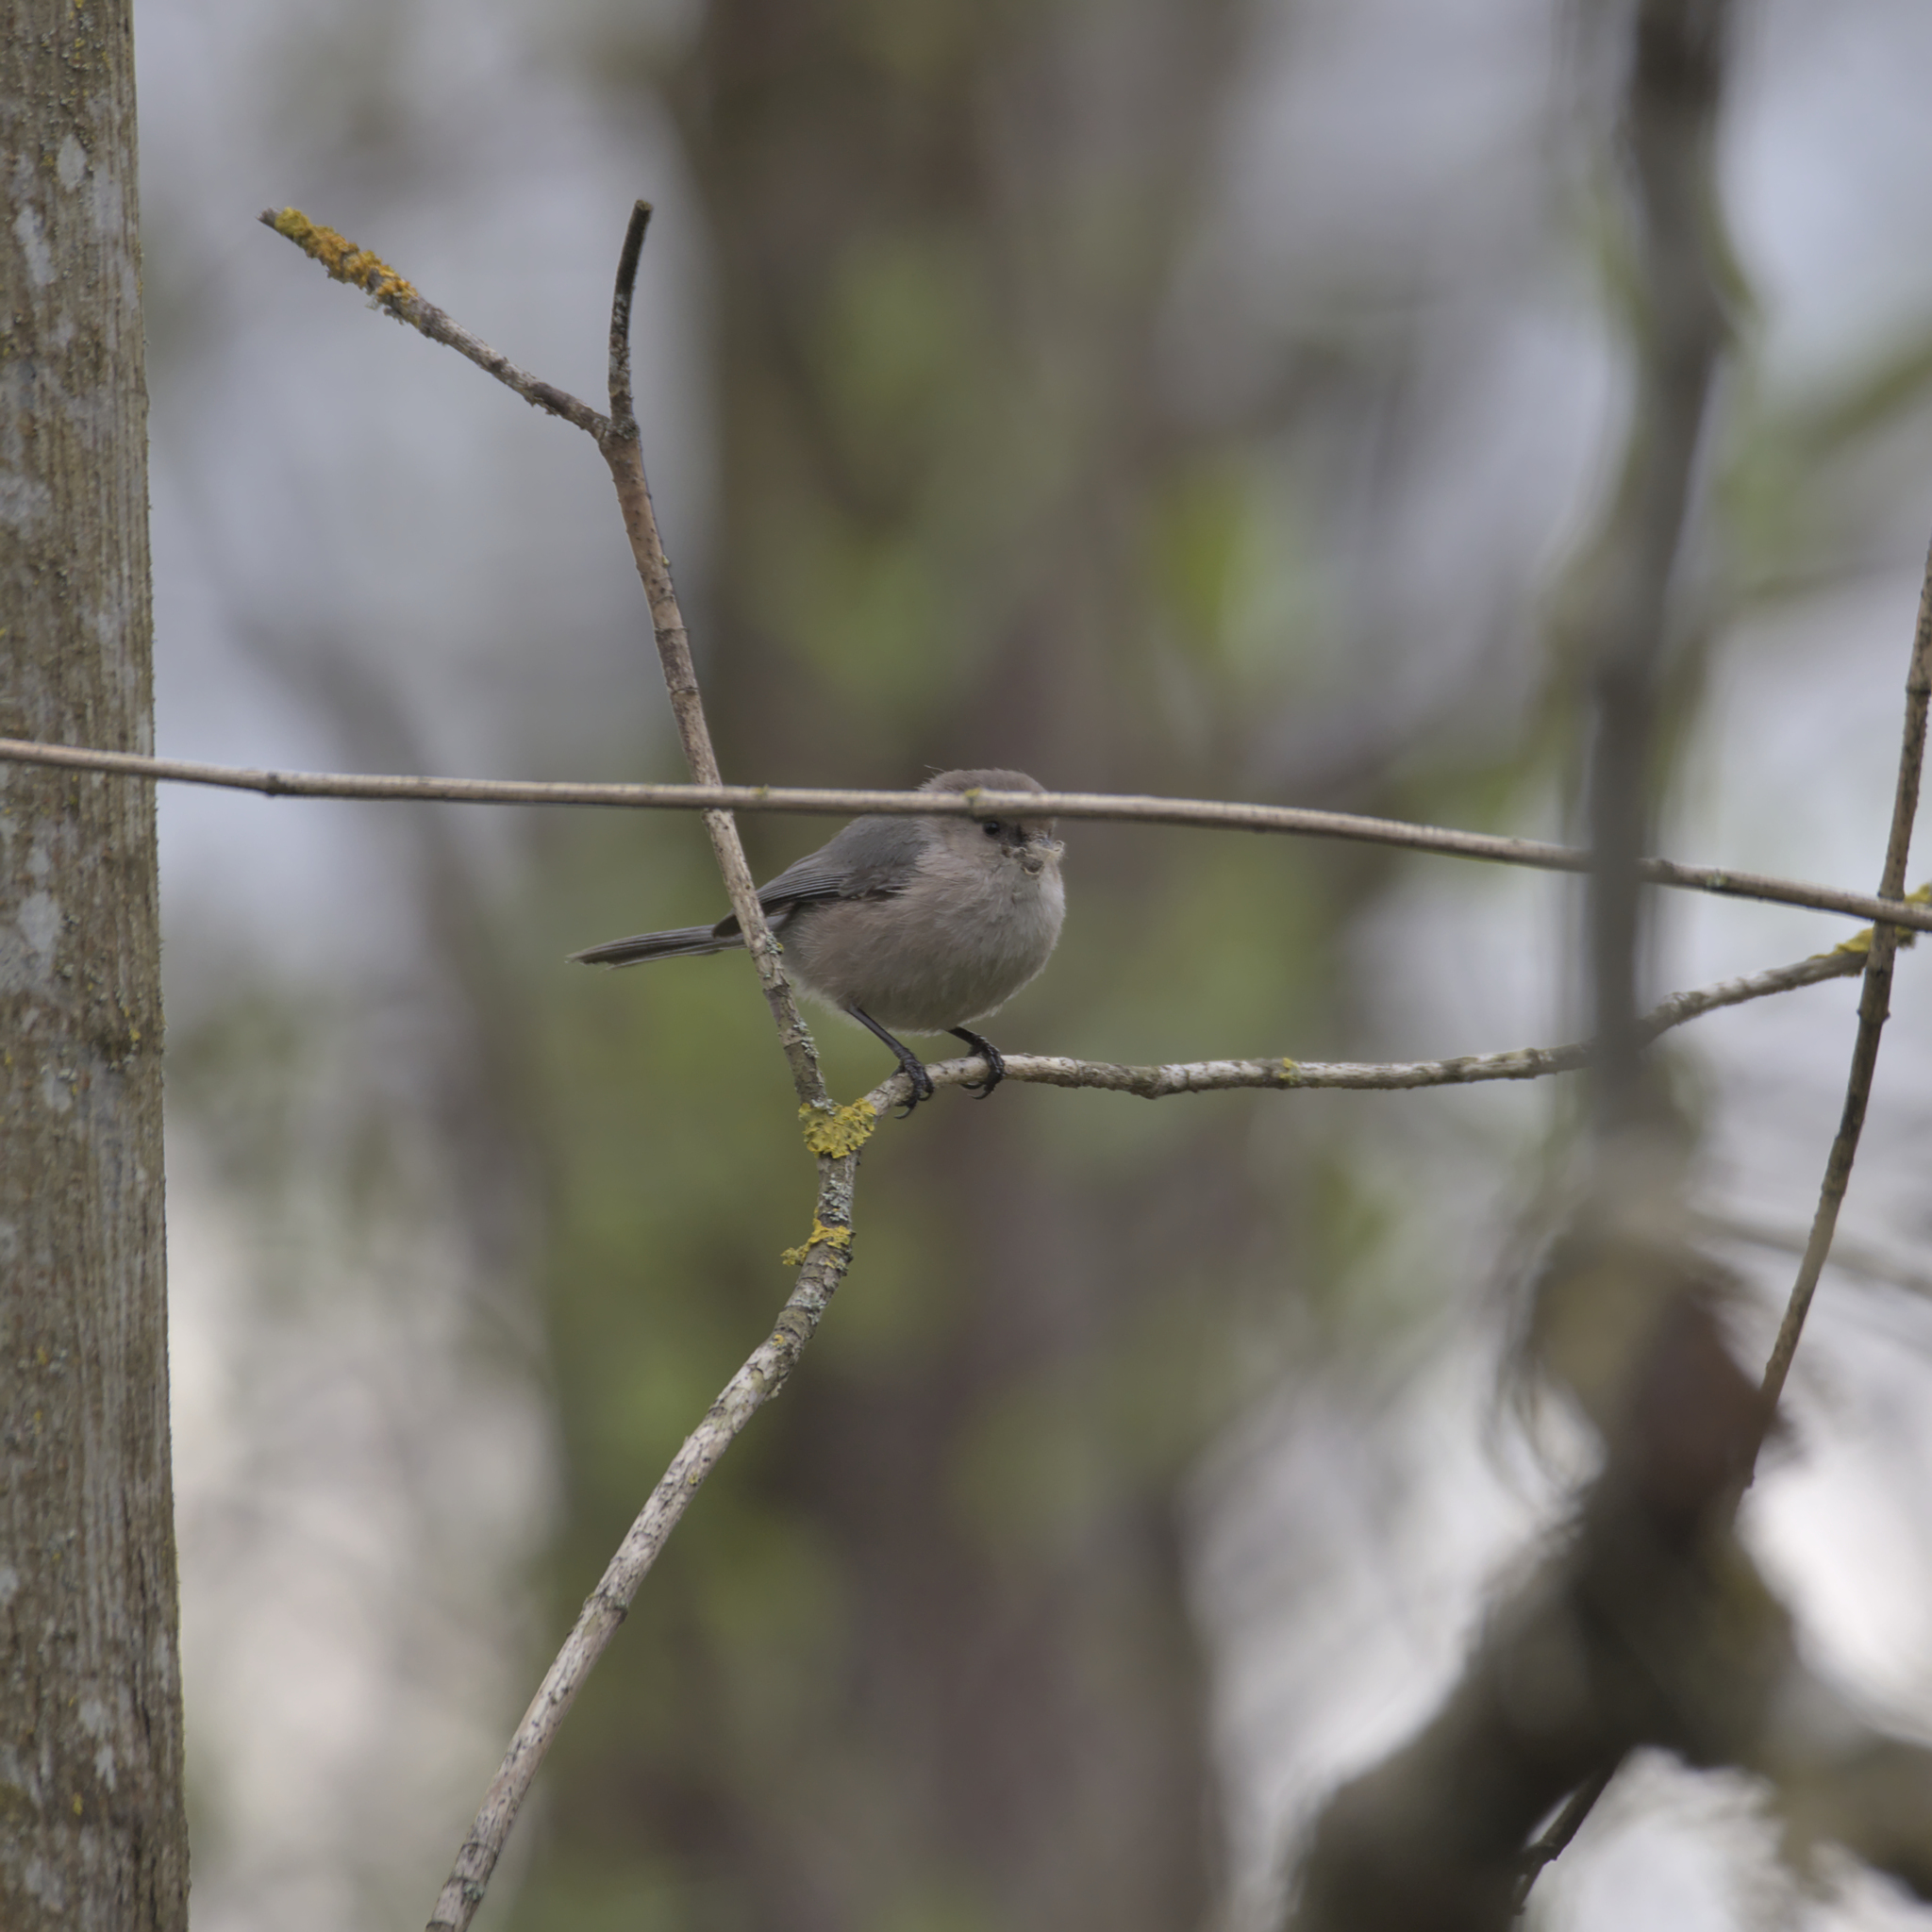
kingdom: Animalia
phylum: Chordata
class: Aves
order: Passeriformes
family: Aegithalidae
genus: Psaltriparus
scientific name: Psaltriparus minimus
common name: American bushtit
